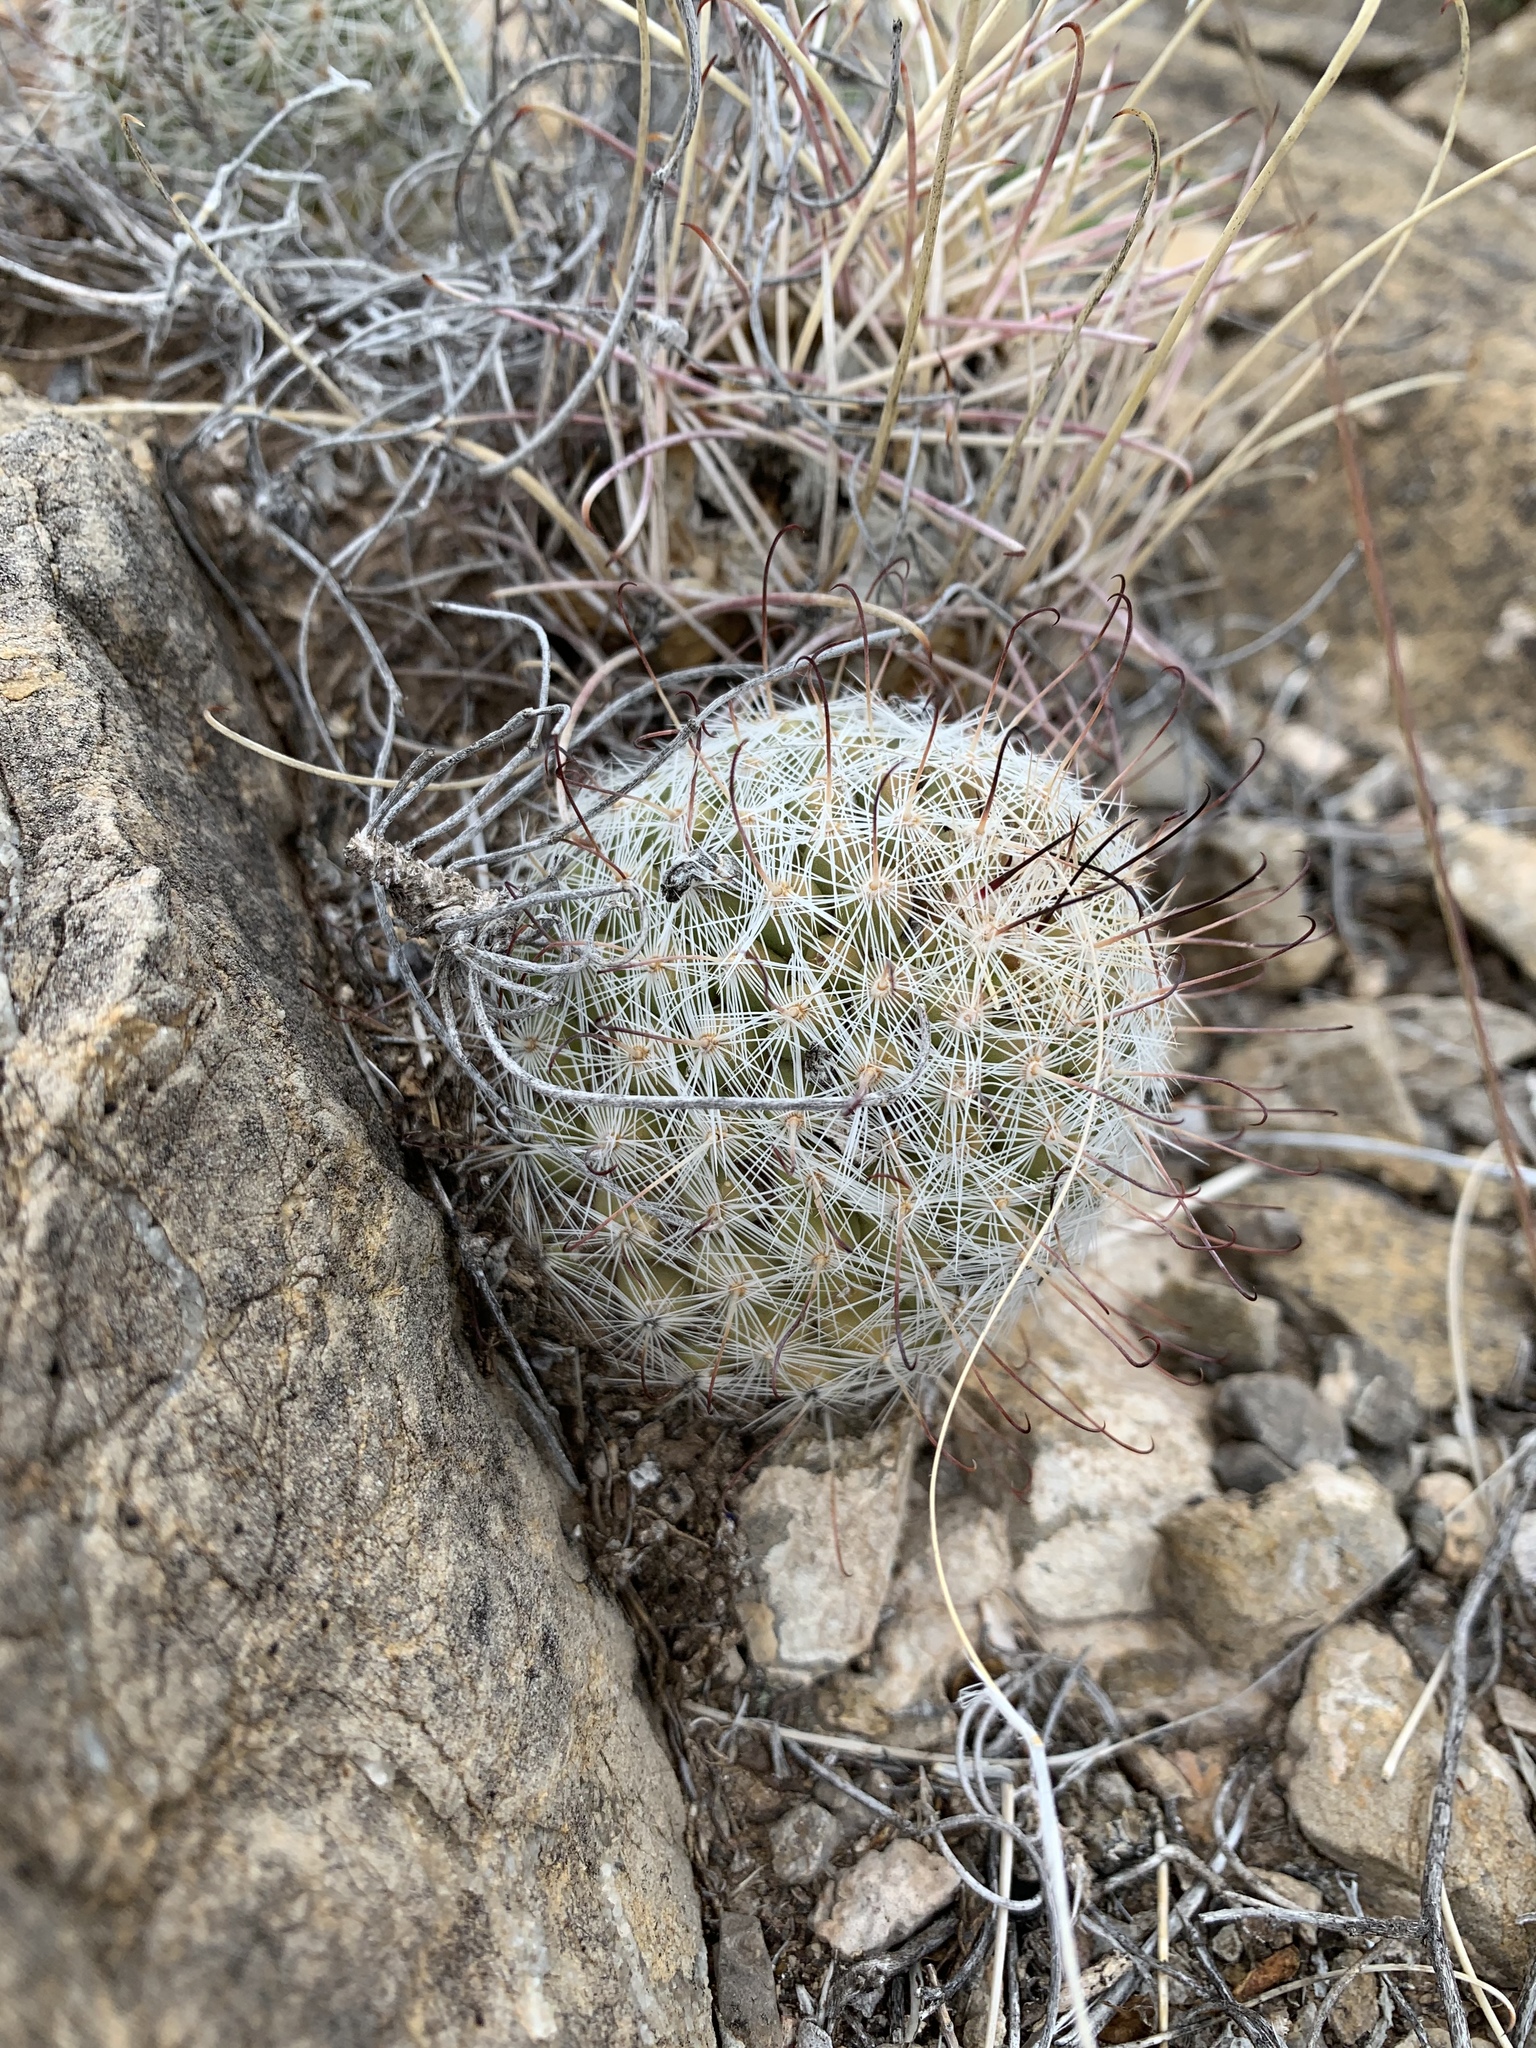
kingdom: Plantae
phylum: Tracheophyta
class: Magnoliopsida
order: Caryophyllales
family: Cactaceae
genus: Cochemiea
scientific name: Cochemiea grahamii
